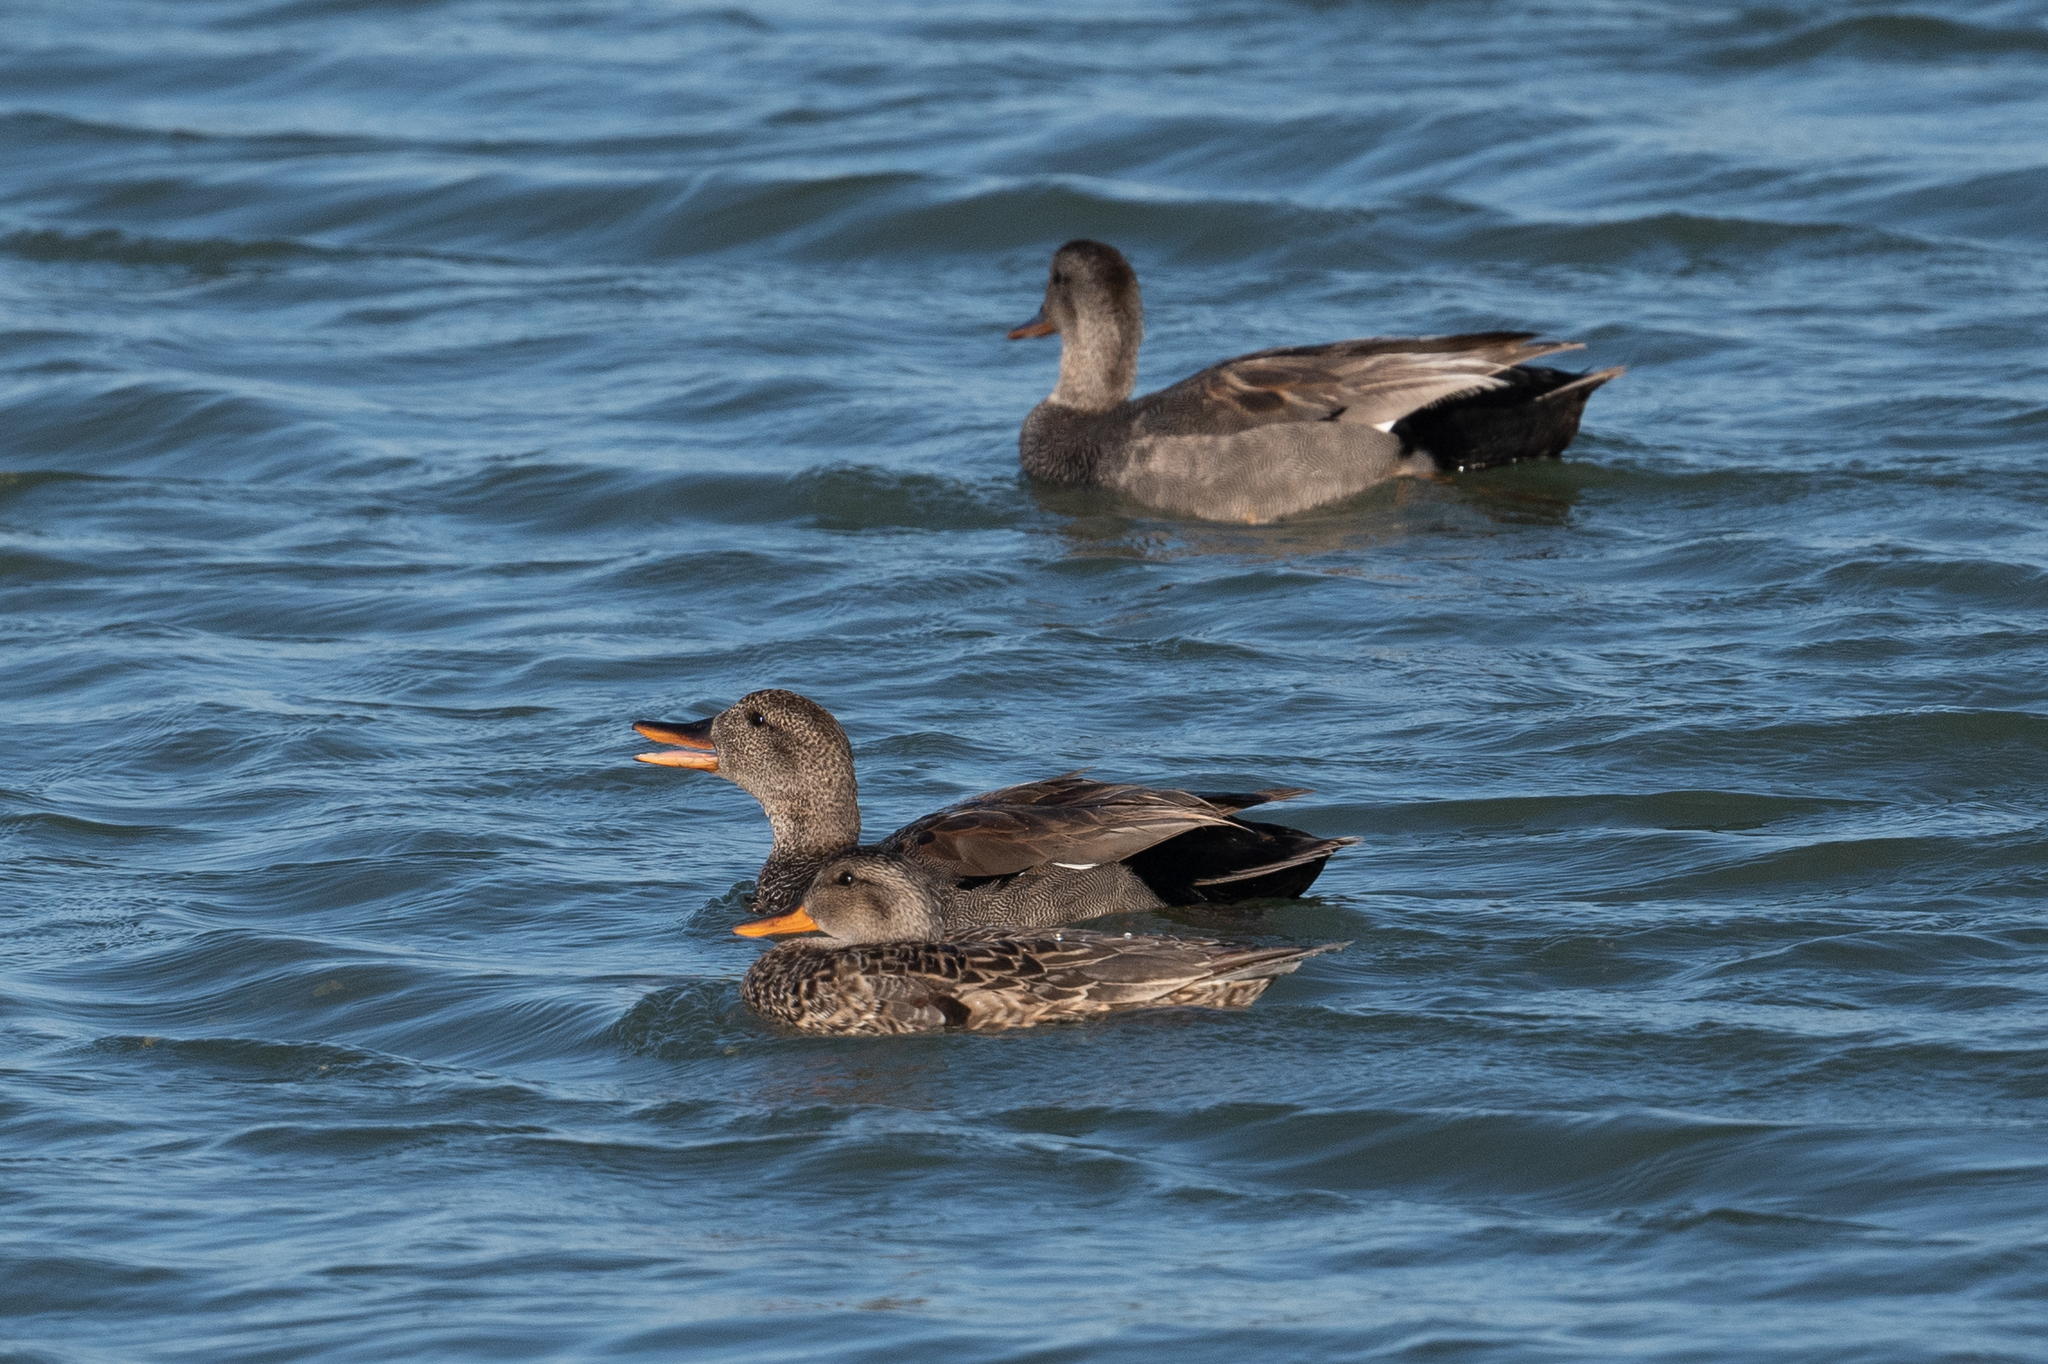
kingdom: Animalia
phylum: Chordata
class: Aves
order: Anseriformes
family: Anatidae
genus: Mareca
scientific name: Mareca strepera
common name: Gadwall
